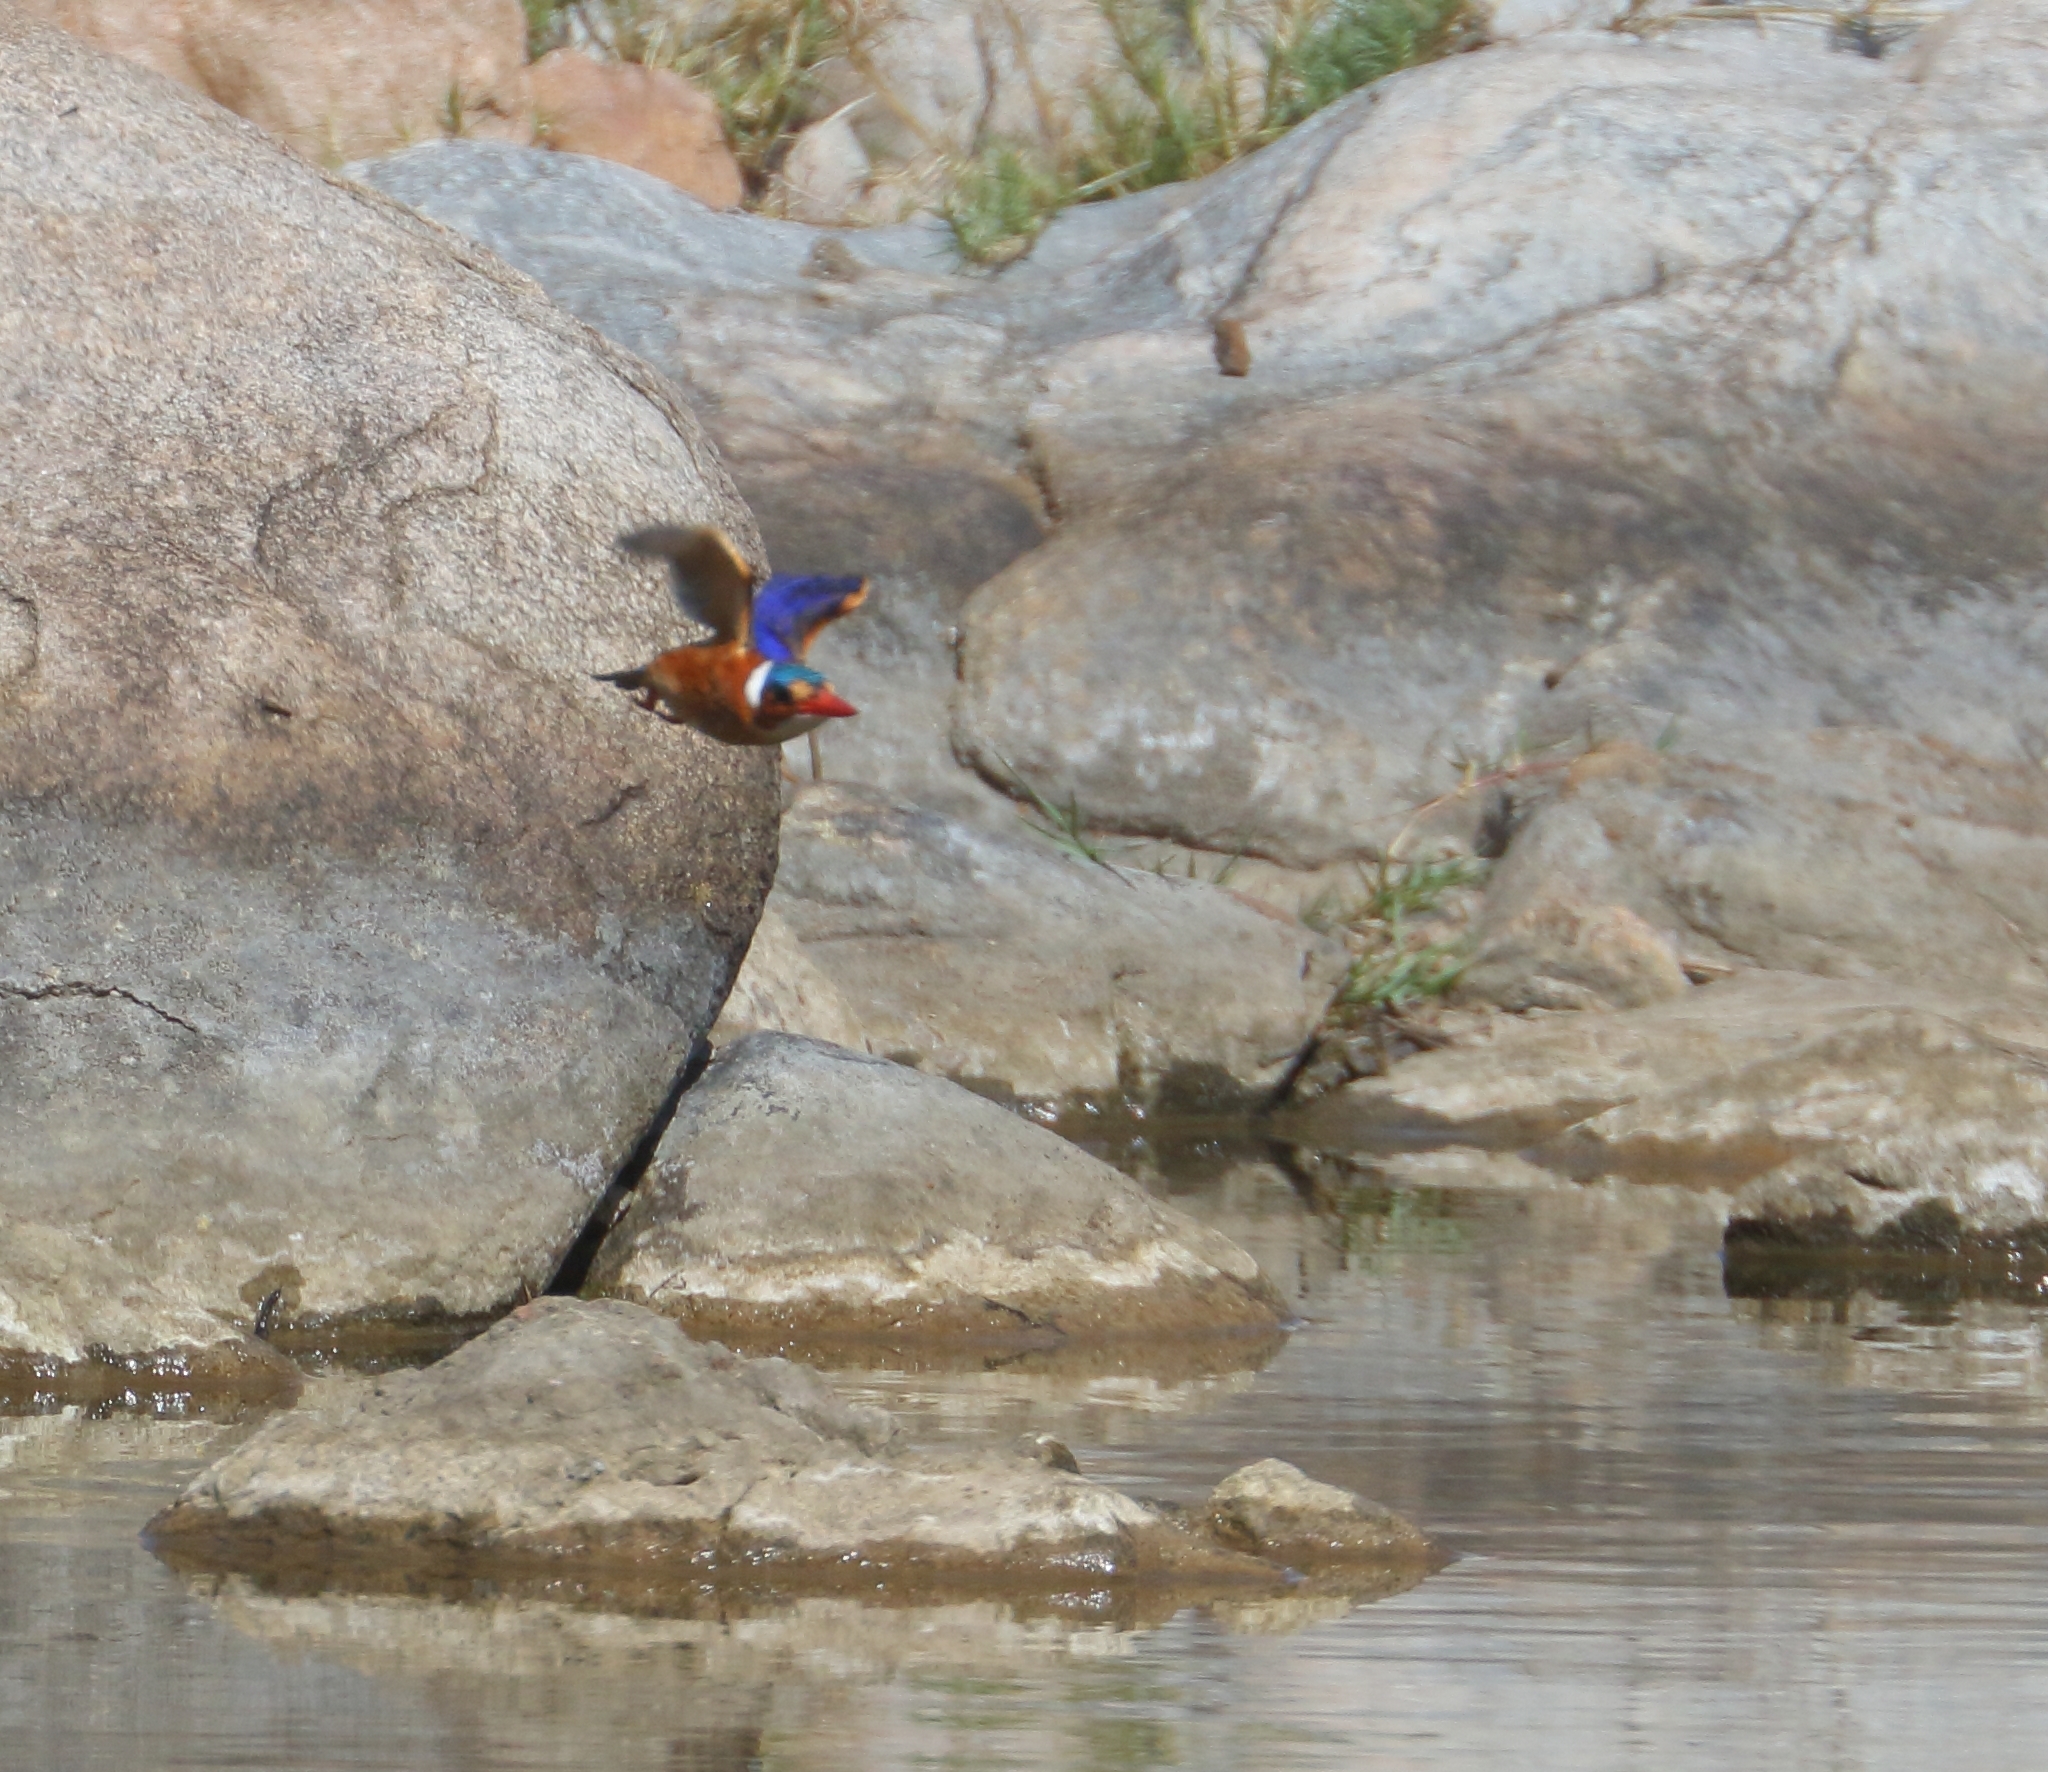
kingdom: Animalia
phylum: Chordata
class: Aves
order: Coraciiformes
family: Alcedinidae
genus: Corythornis
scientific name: Corythornis cristatus
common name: Malachite kingfisher
